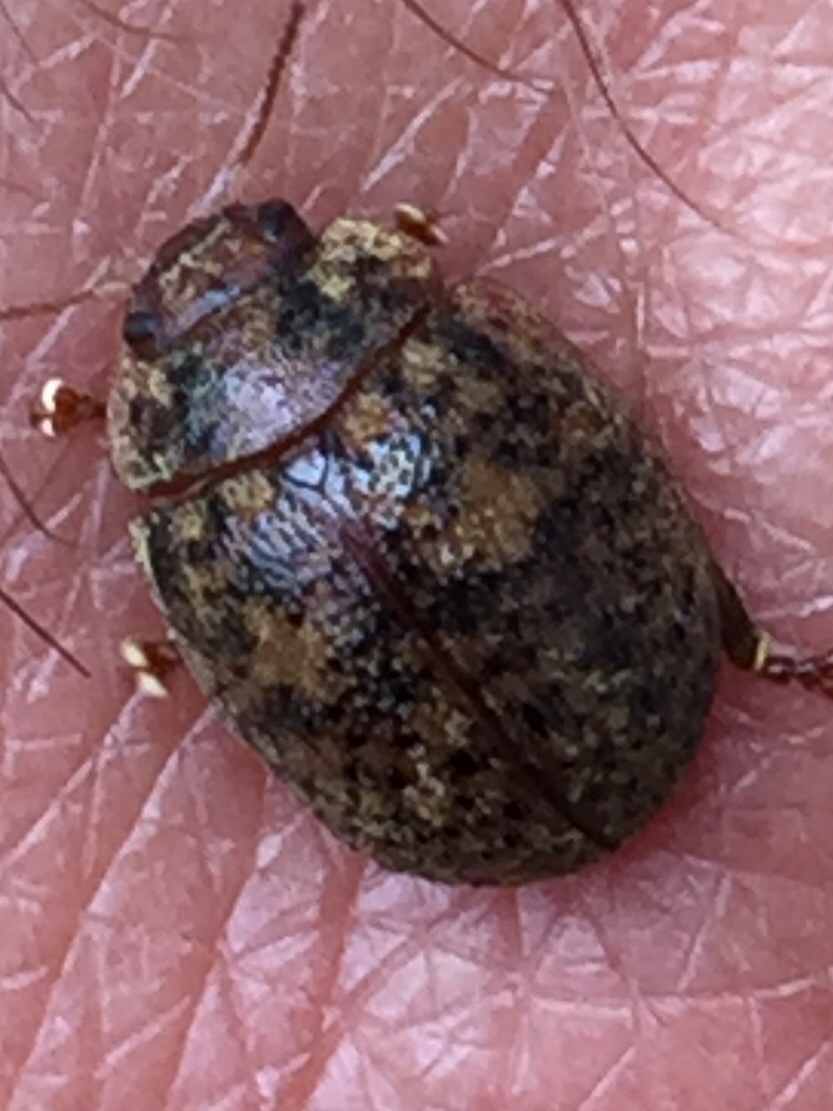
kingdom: Animalia
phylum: Arthropoda
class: Insecta
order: Coleoptera
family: Chrysomelidae
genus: Trachymela
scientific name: Trachymela sloanei
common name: Australian tortoise beetle
